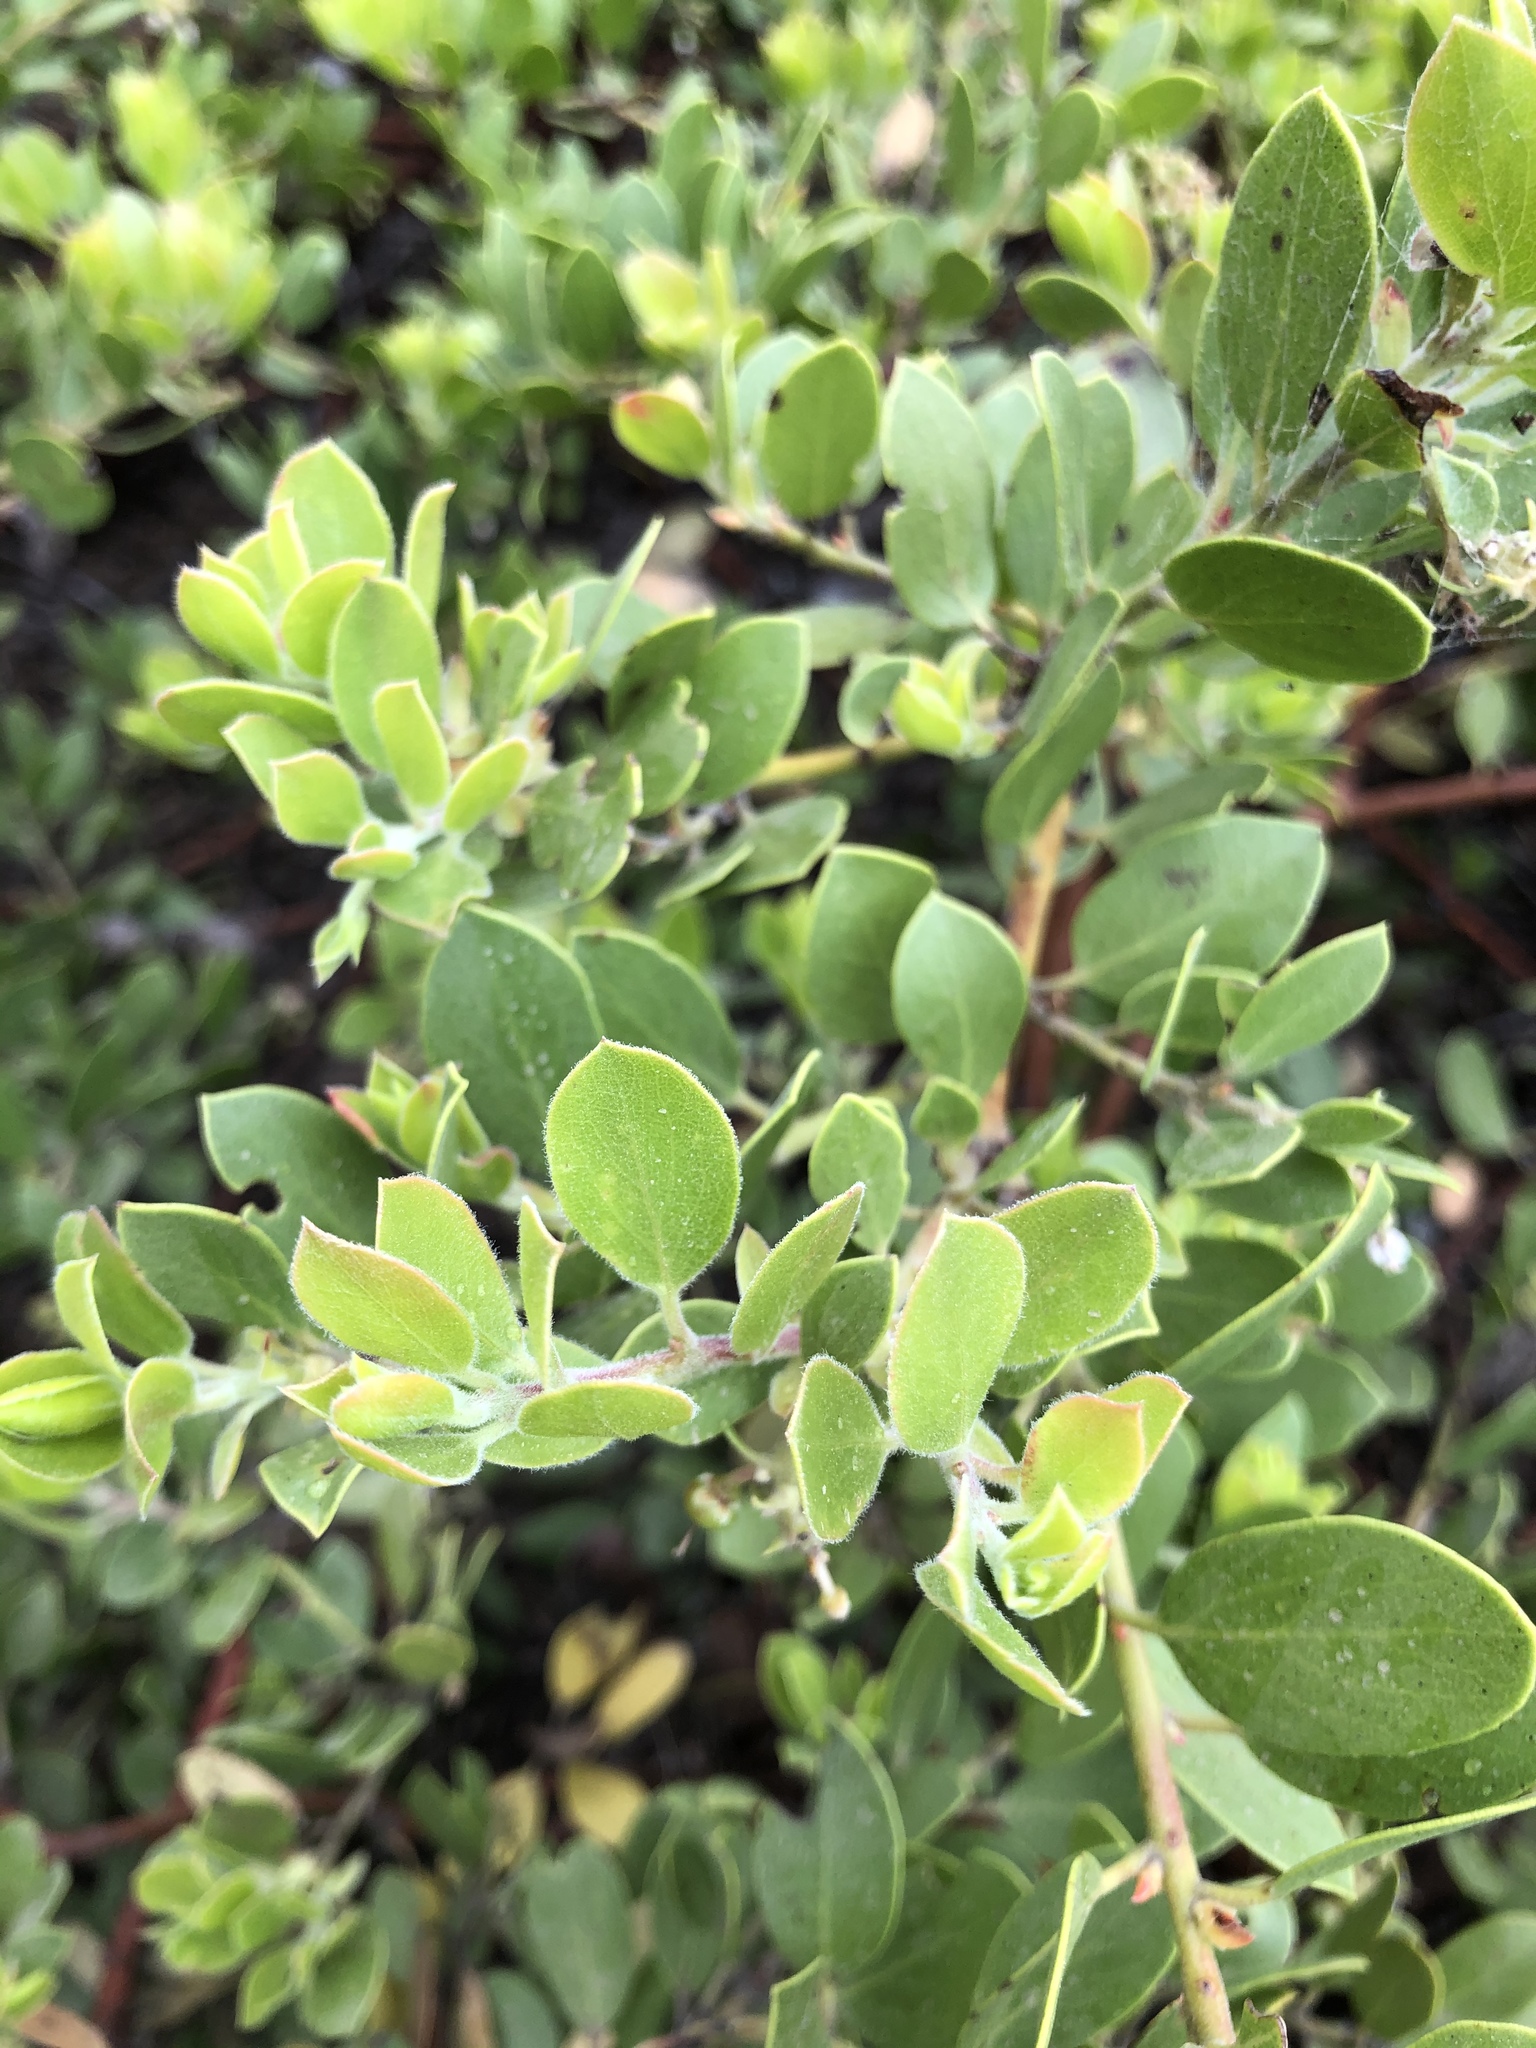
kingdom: Plantae
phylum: Tracheophyta
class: Magnoliopsida
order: Ericales
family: Ericaceae
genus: Arctostaphylos
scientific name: Arctostaphylos nevadensis
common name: Pinemat manzanita
